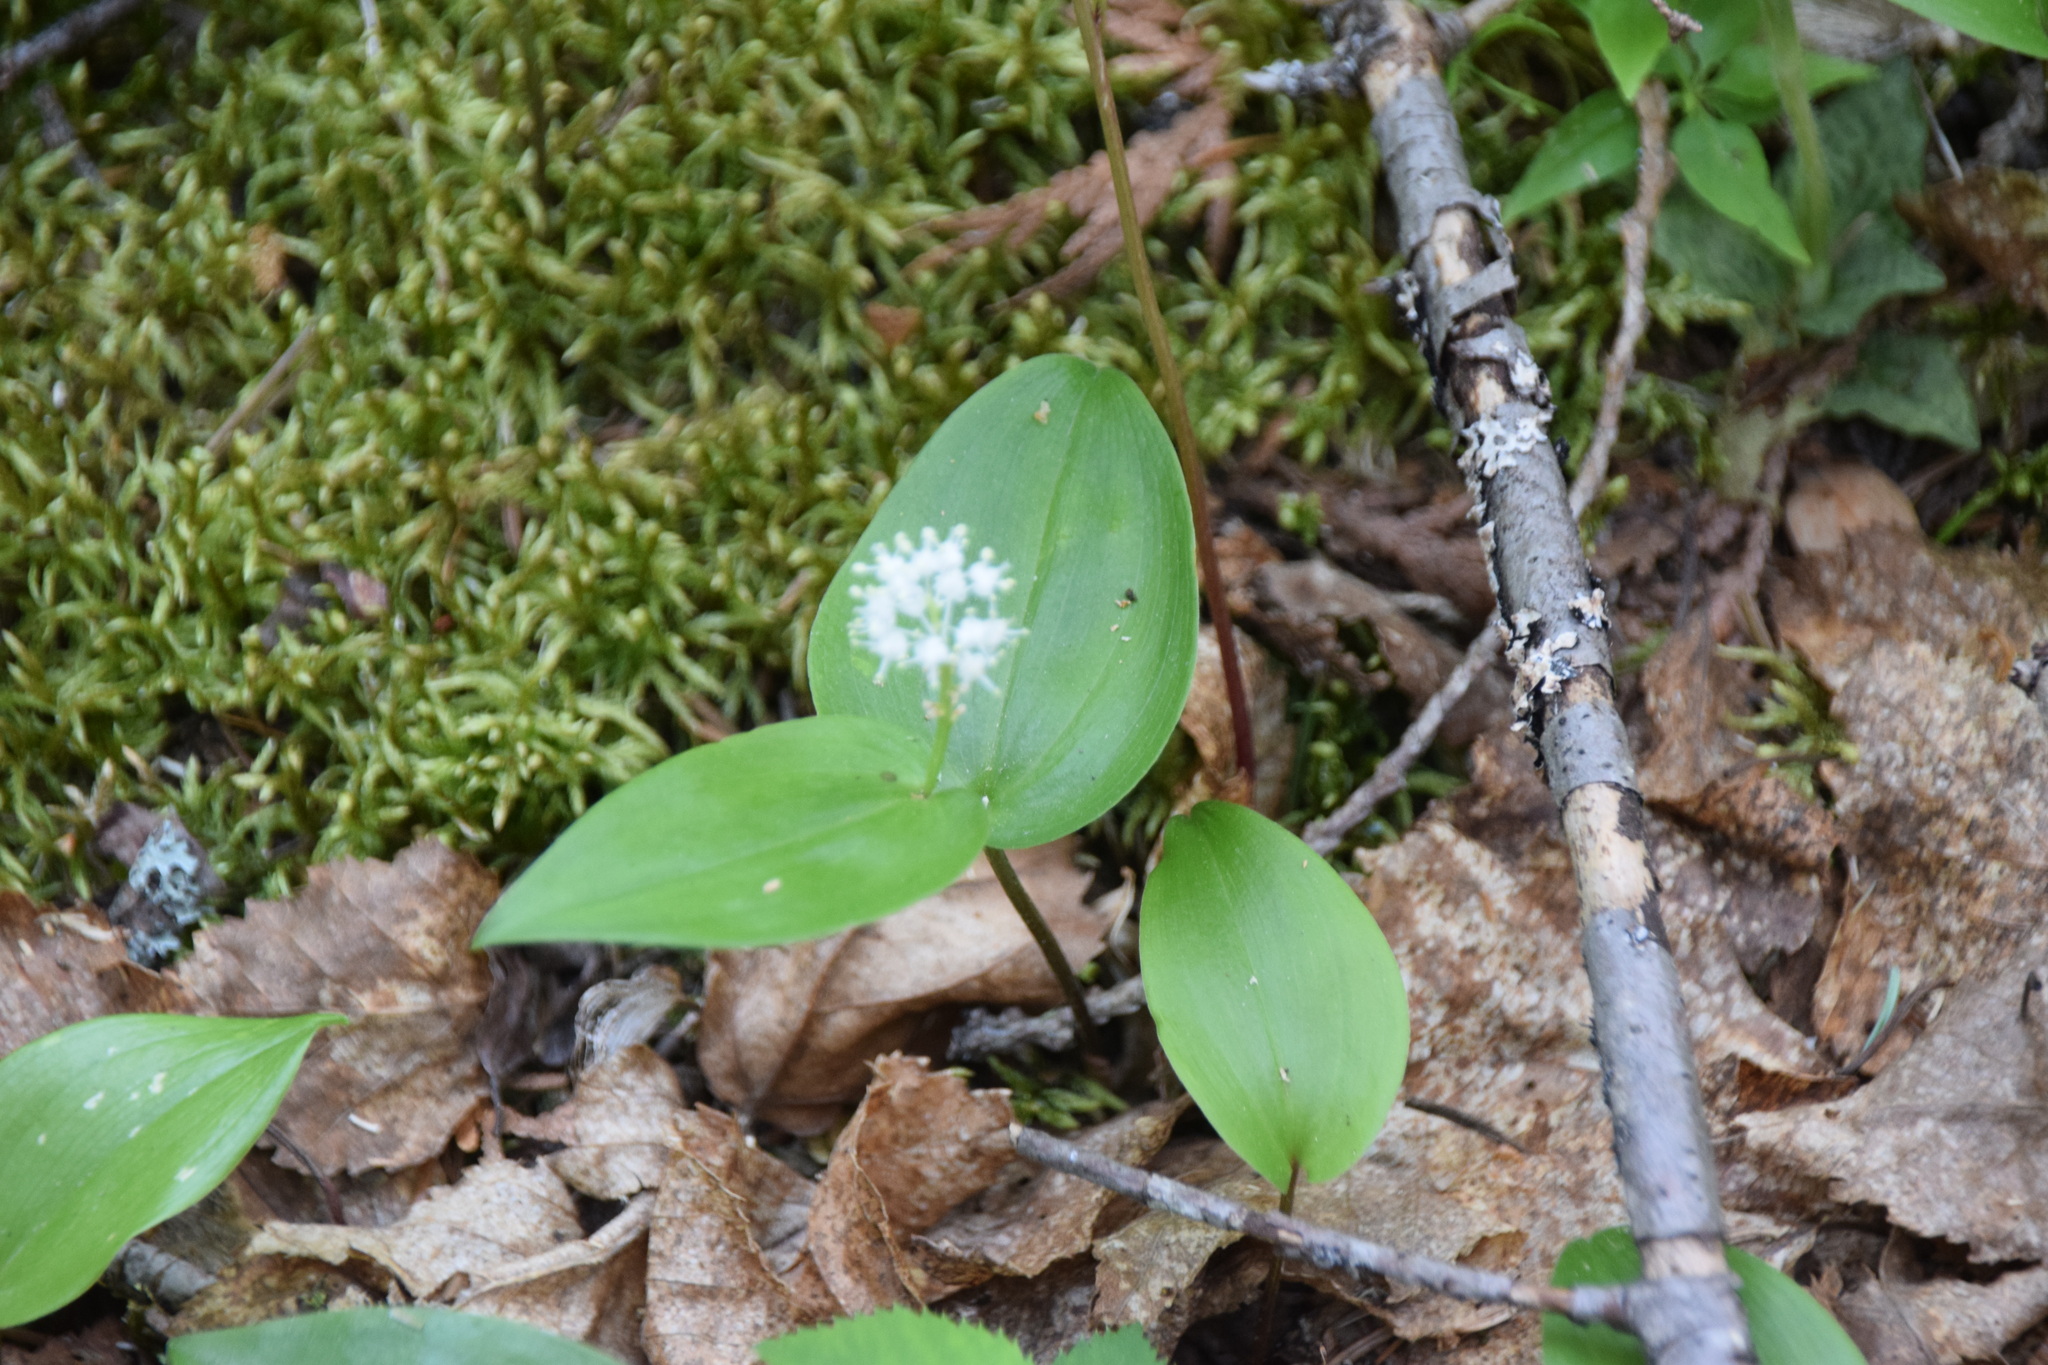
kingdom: Plantae
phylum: Tracheophyta
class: Liliopsida
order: Asparagales
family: Asparagaceae
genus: Maianthemum
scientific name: Maianthemum canadense
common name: False lily-of-the-valley
